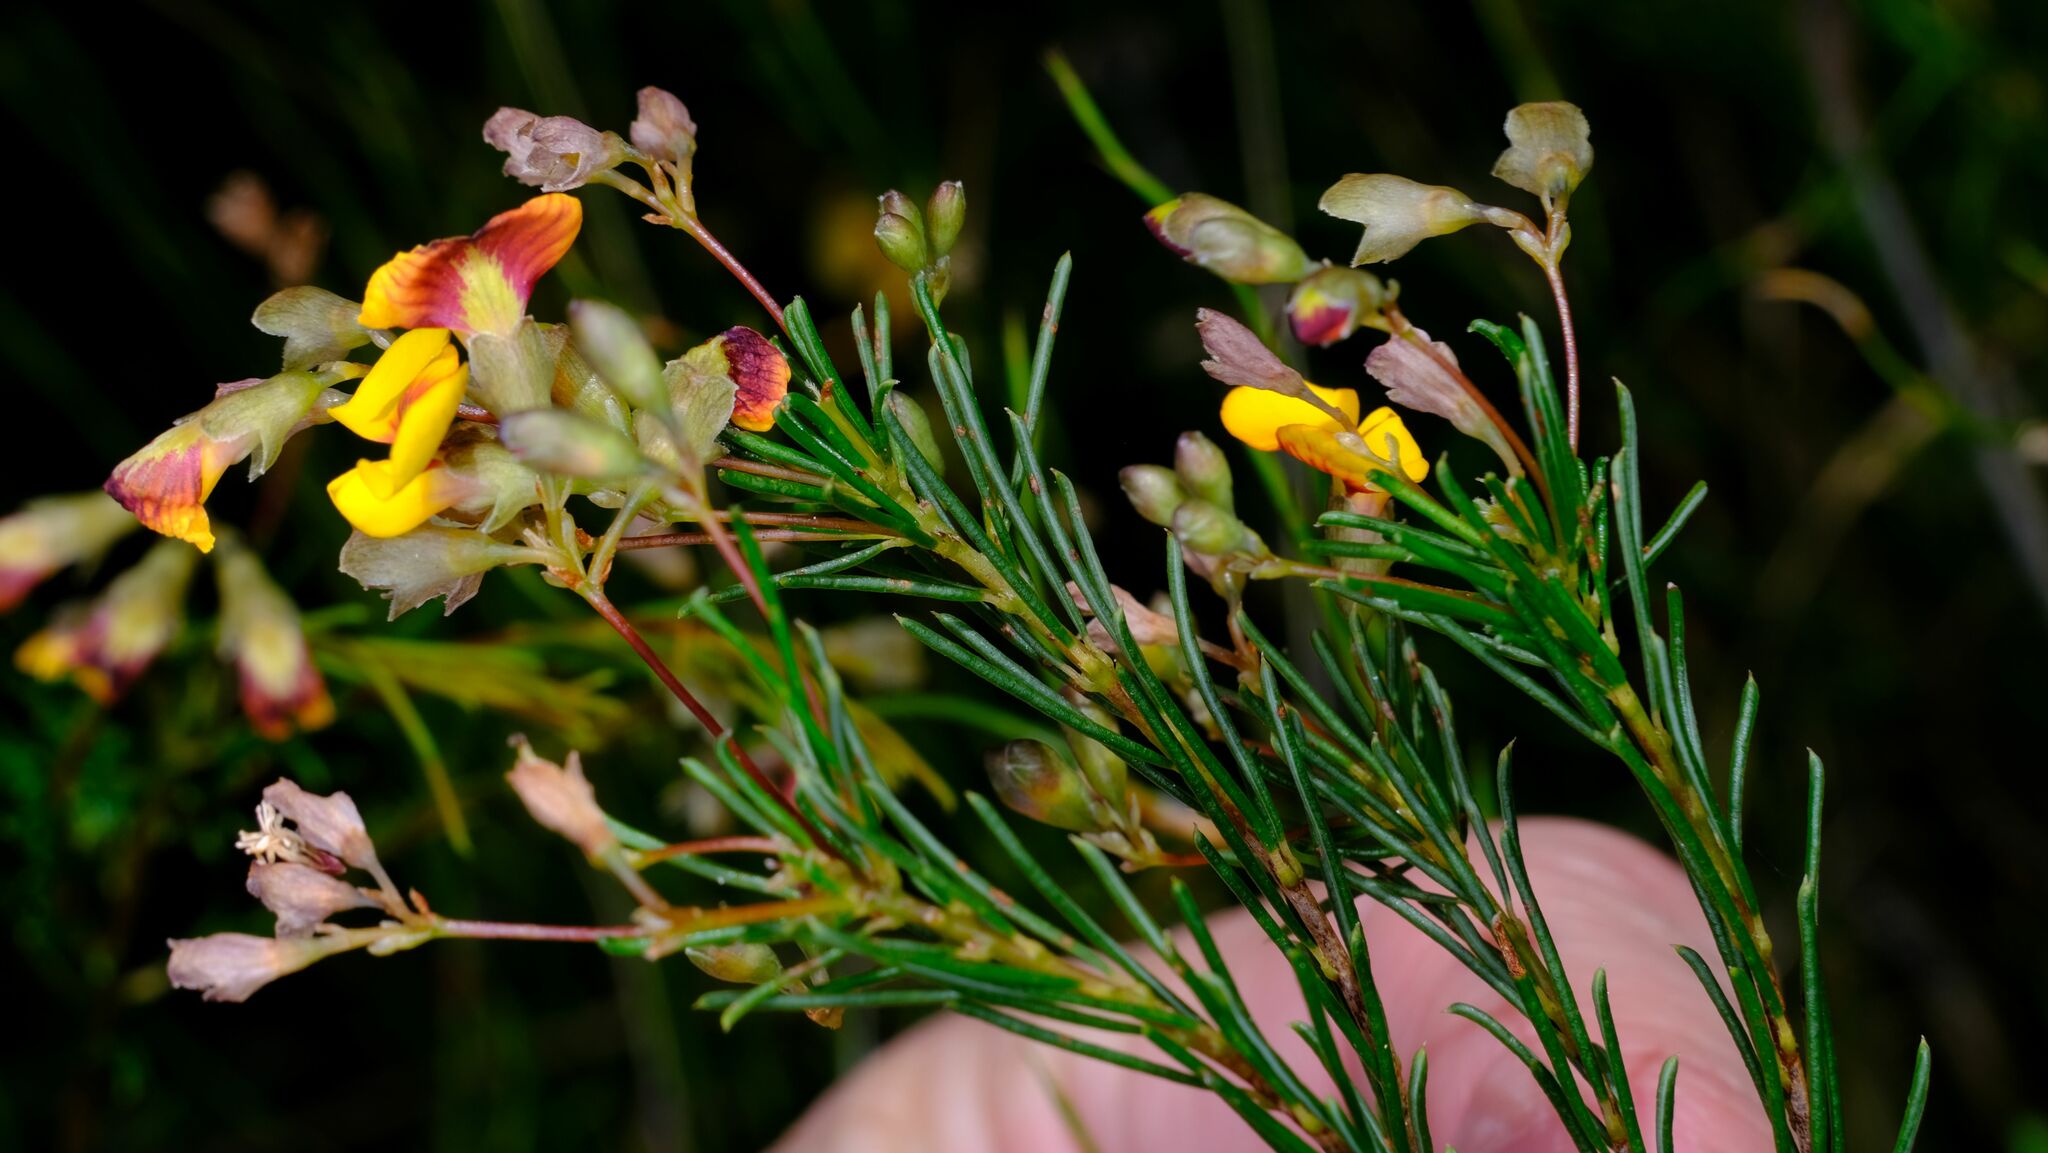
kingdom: Plantae
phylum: Tracheophyta
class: Magnoliopsida
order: Fabales
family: Fabaceae
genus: Dillwynia
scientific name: Dillwynia glaberrima
